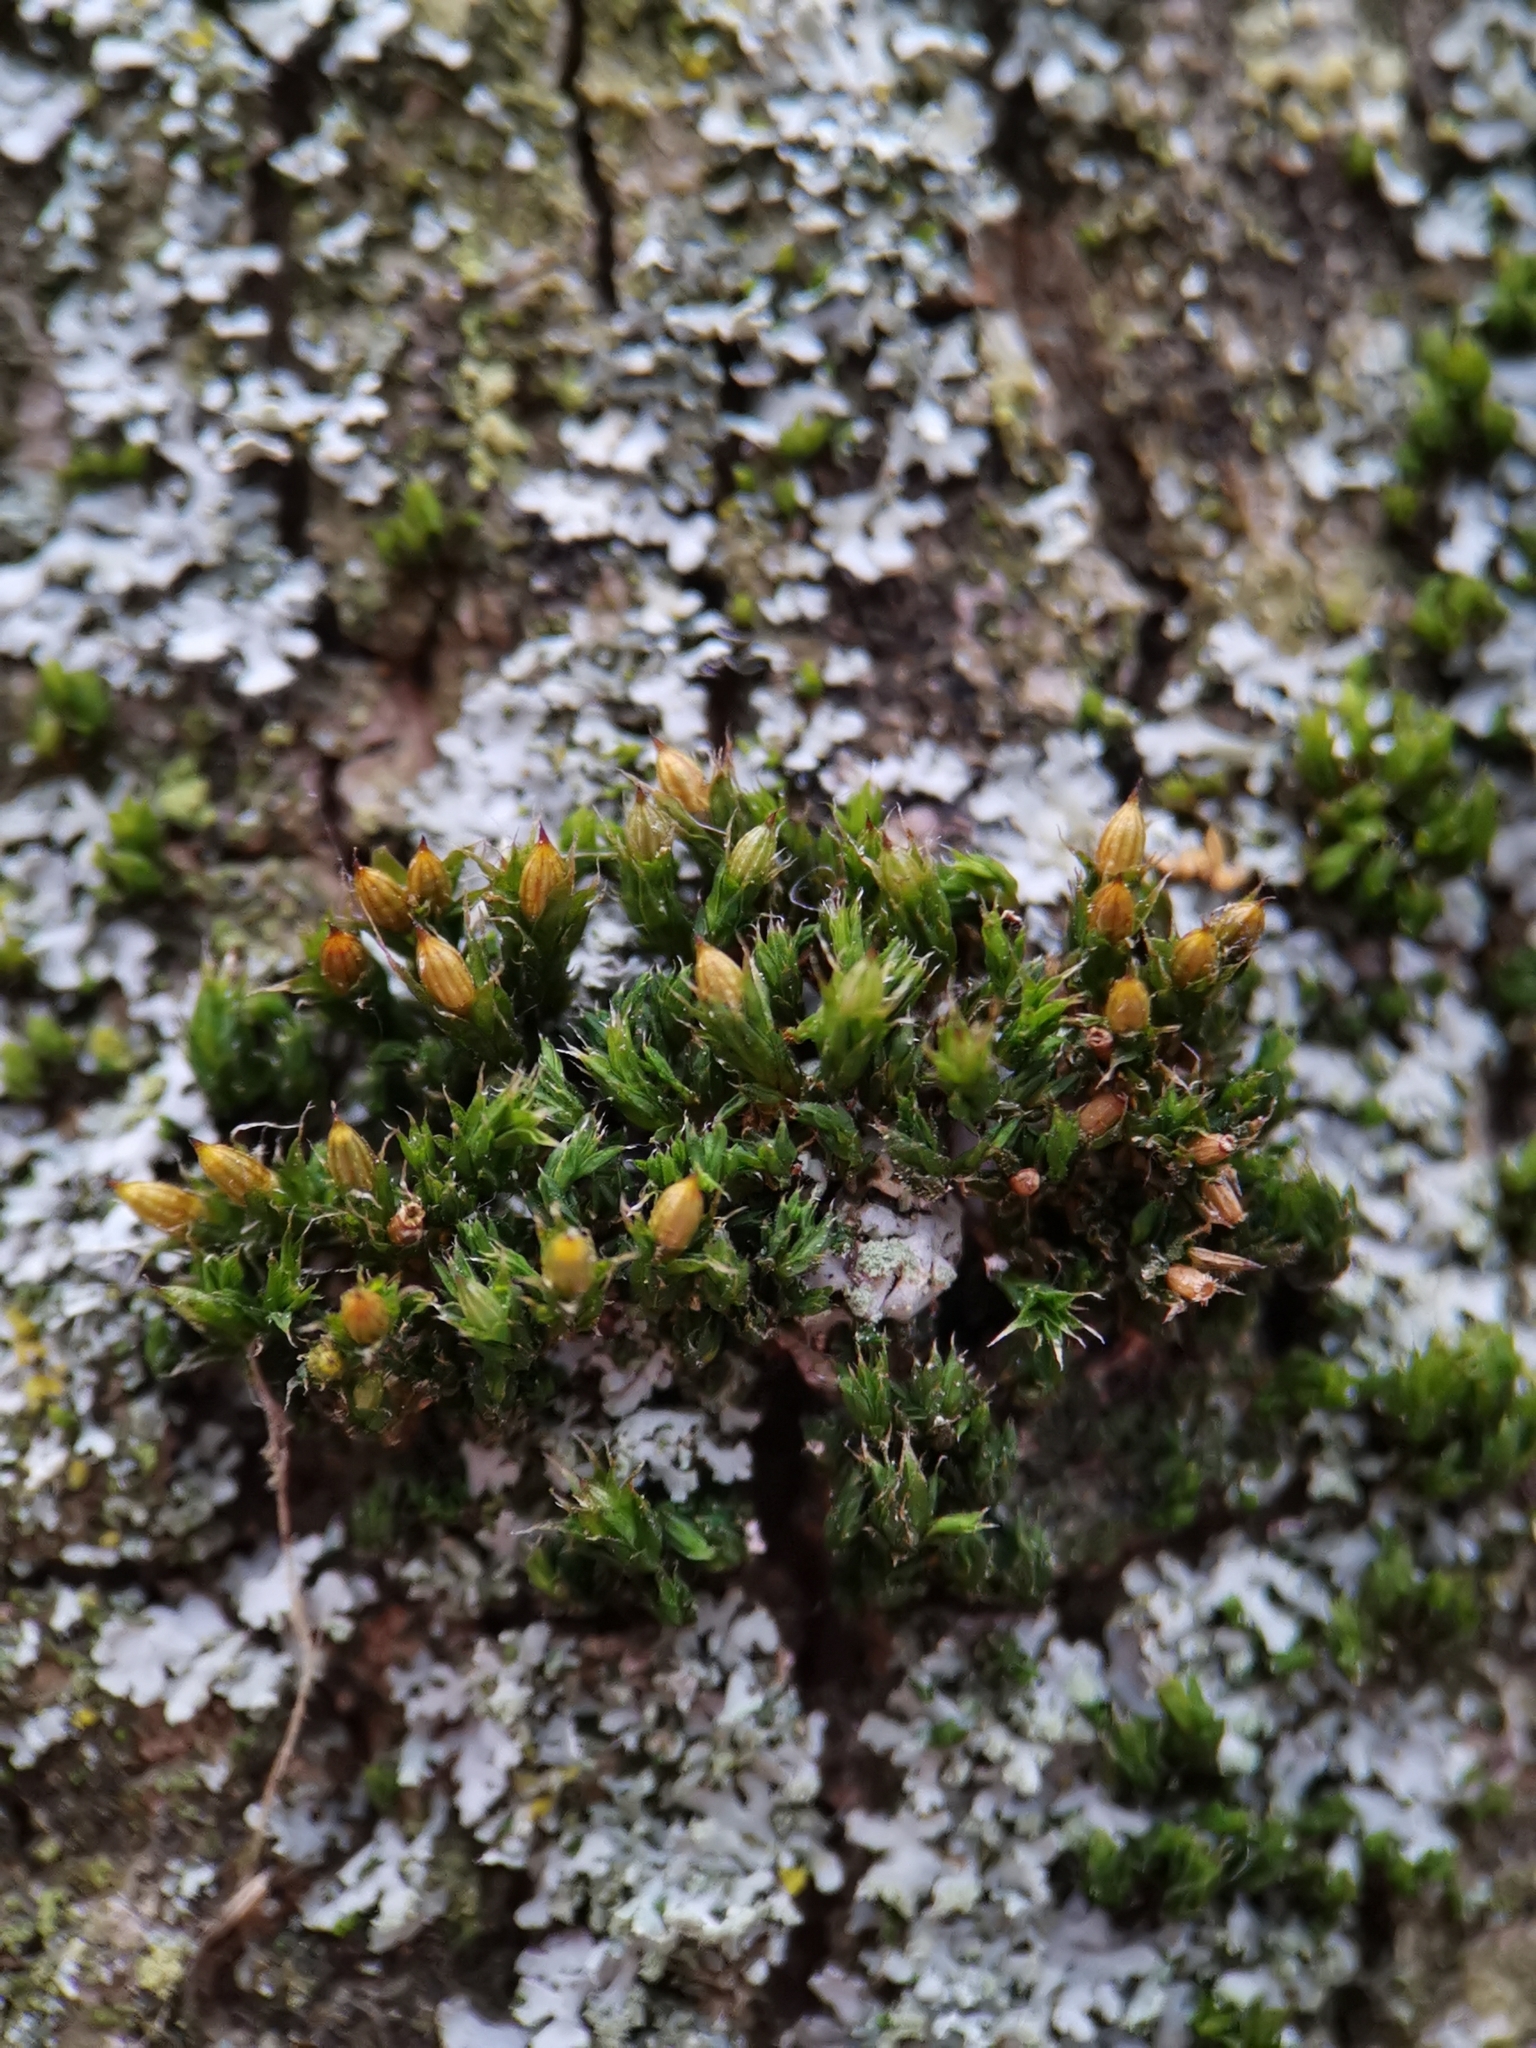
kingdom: Plantae
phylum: Bryophyta
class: Bryopsida
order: Orthotrichales
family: Orthotrichaceae
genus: Orthotrichum
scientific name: Orthotrichum diaphanum
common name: White-tipped bristle-moss
